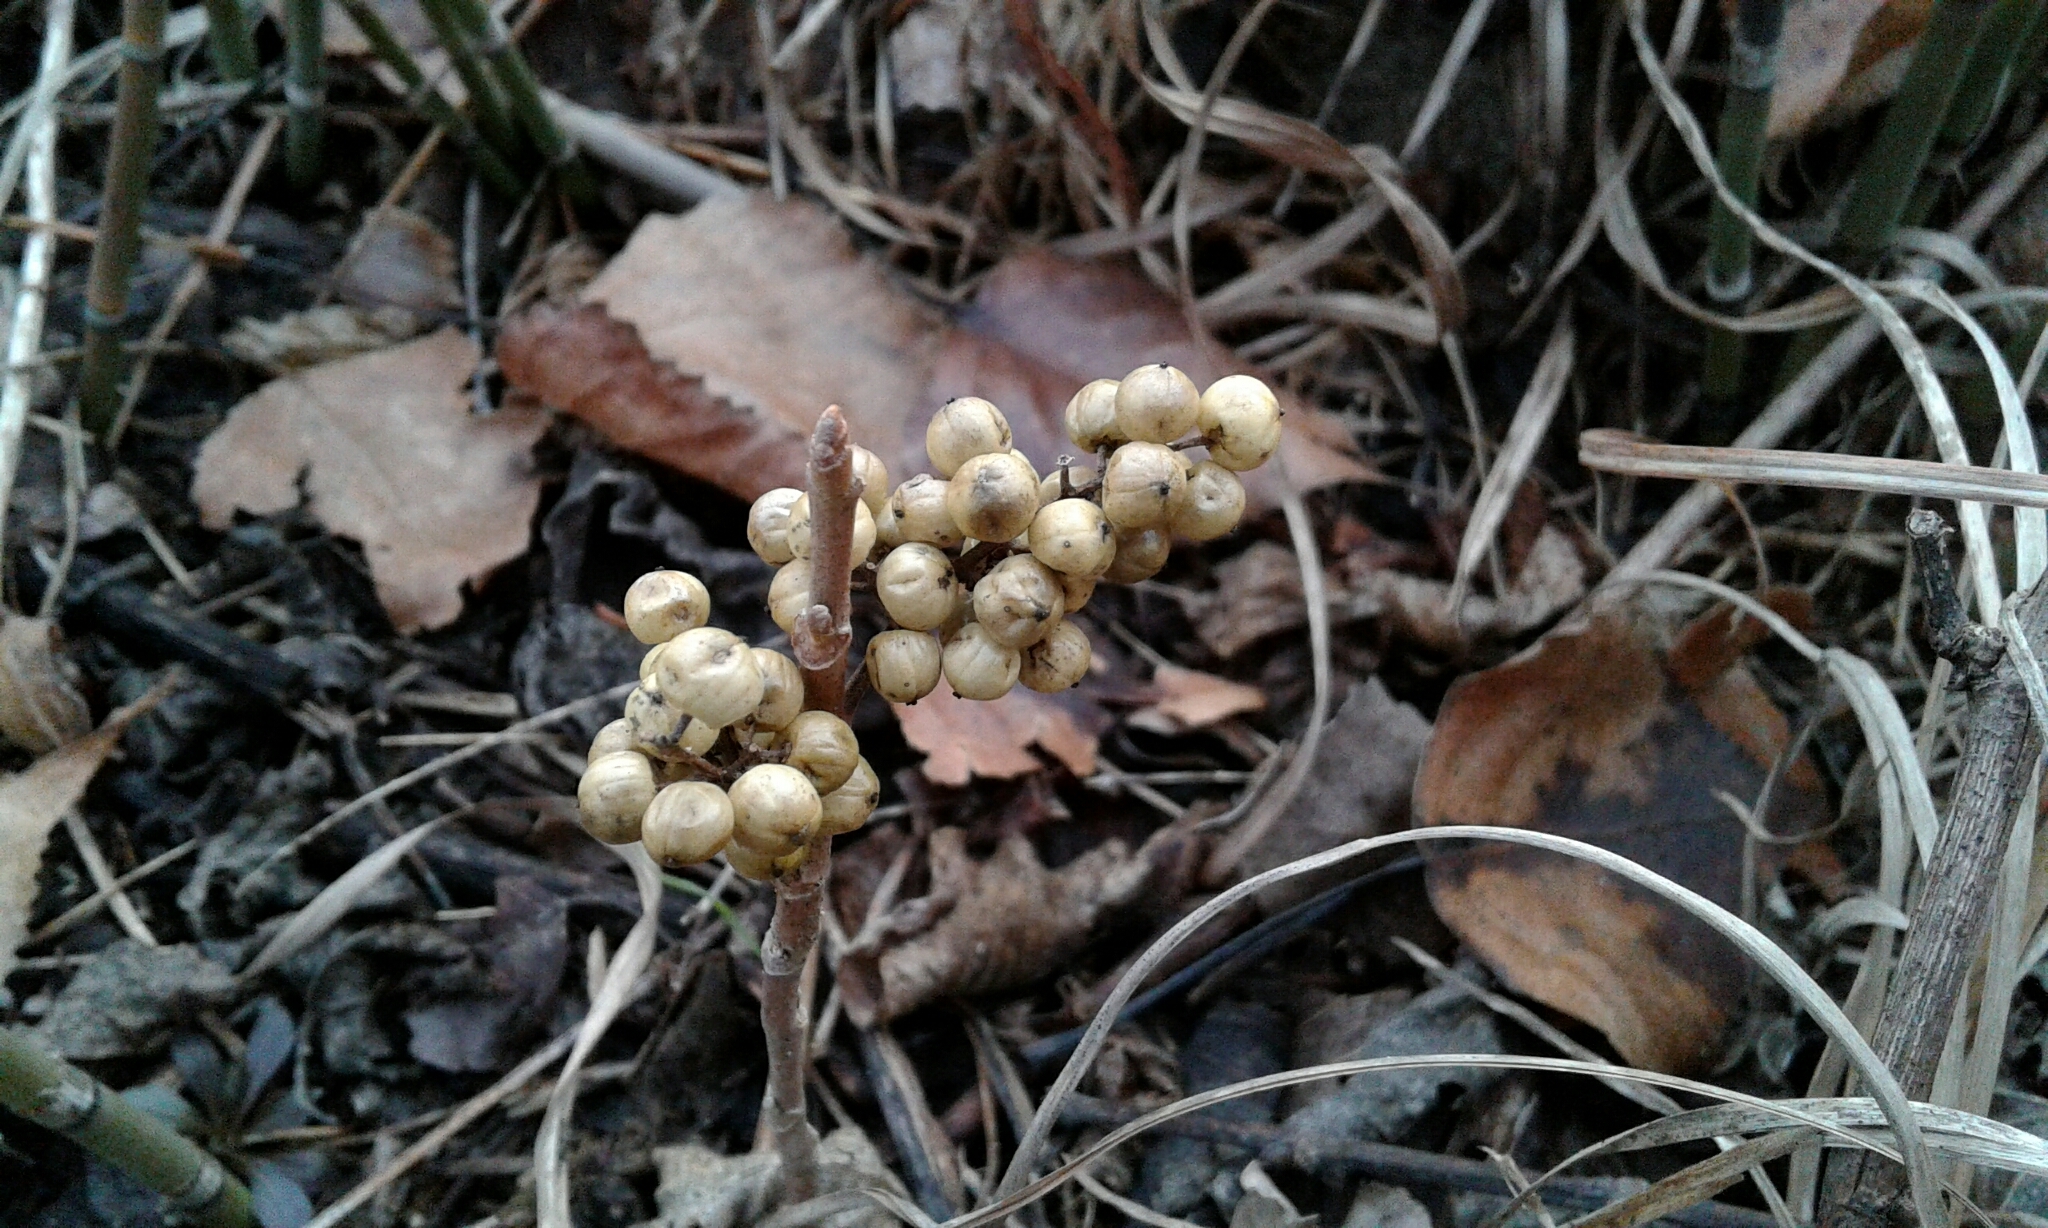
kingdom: Plantae
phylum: Tracheophyta
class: Magnoliopsida
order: Sapindales
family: Anacardiaceae
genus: Toxicodendron
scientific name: Toxicodendron rydbergii
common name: Rydberg's poison-ivy
